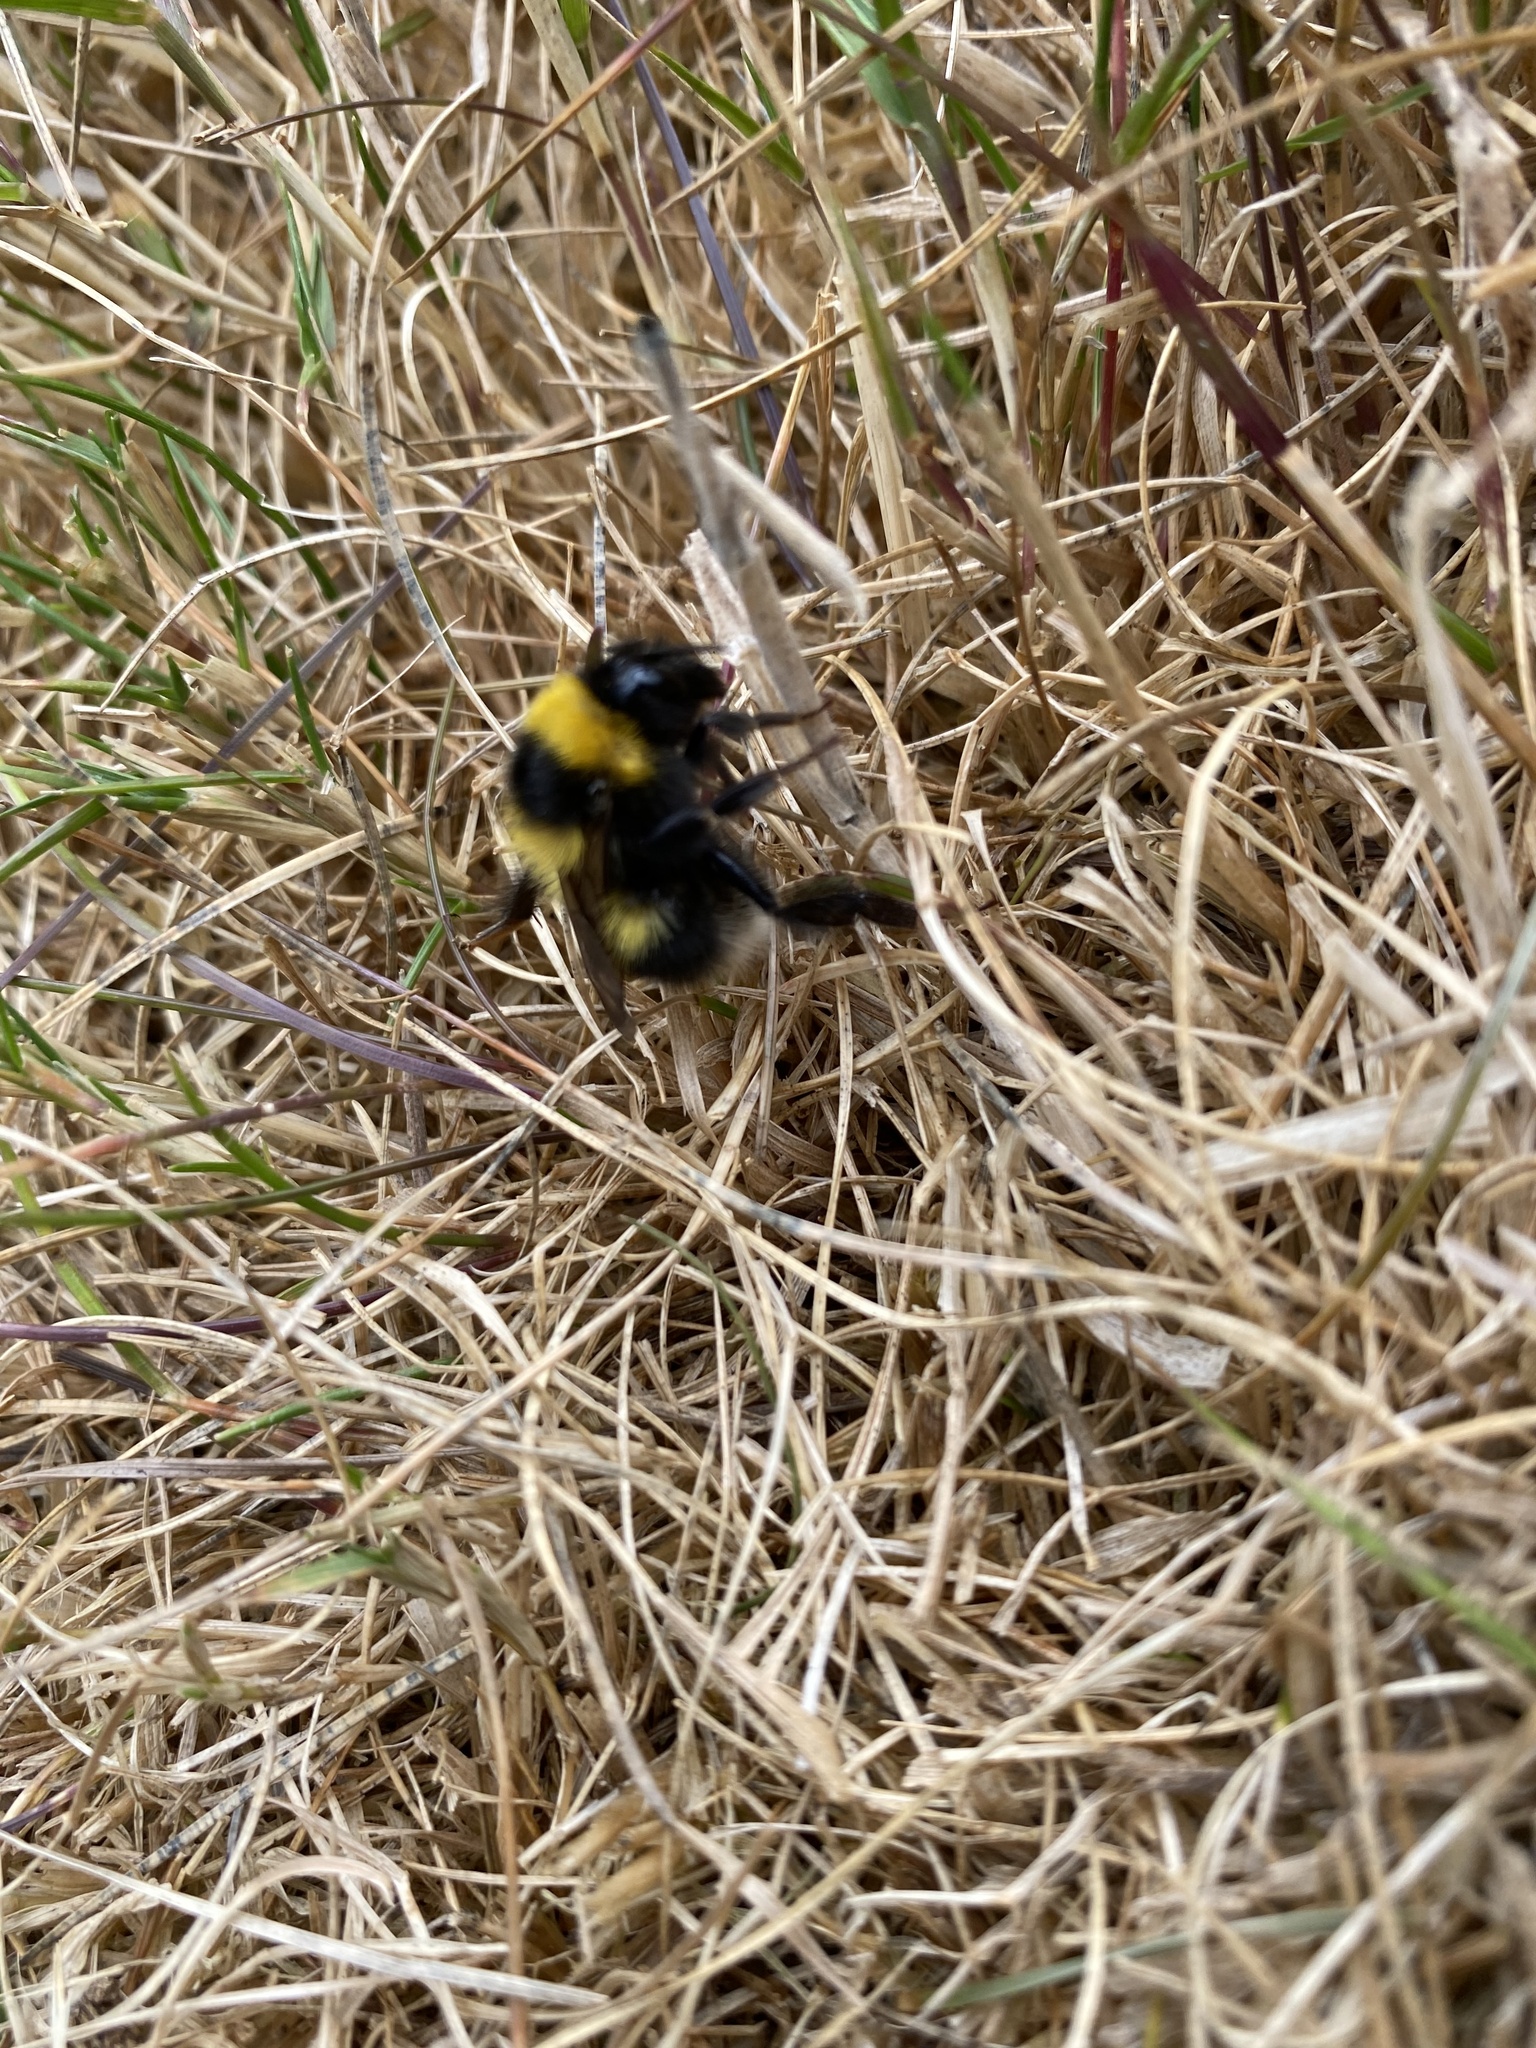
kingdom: Animalia
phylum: Arthropoda
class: Insecta
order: Hymenoptera
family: Apidae
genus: Bombus
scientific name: Bombus hortorum
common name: Garden bumblebee
